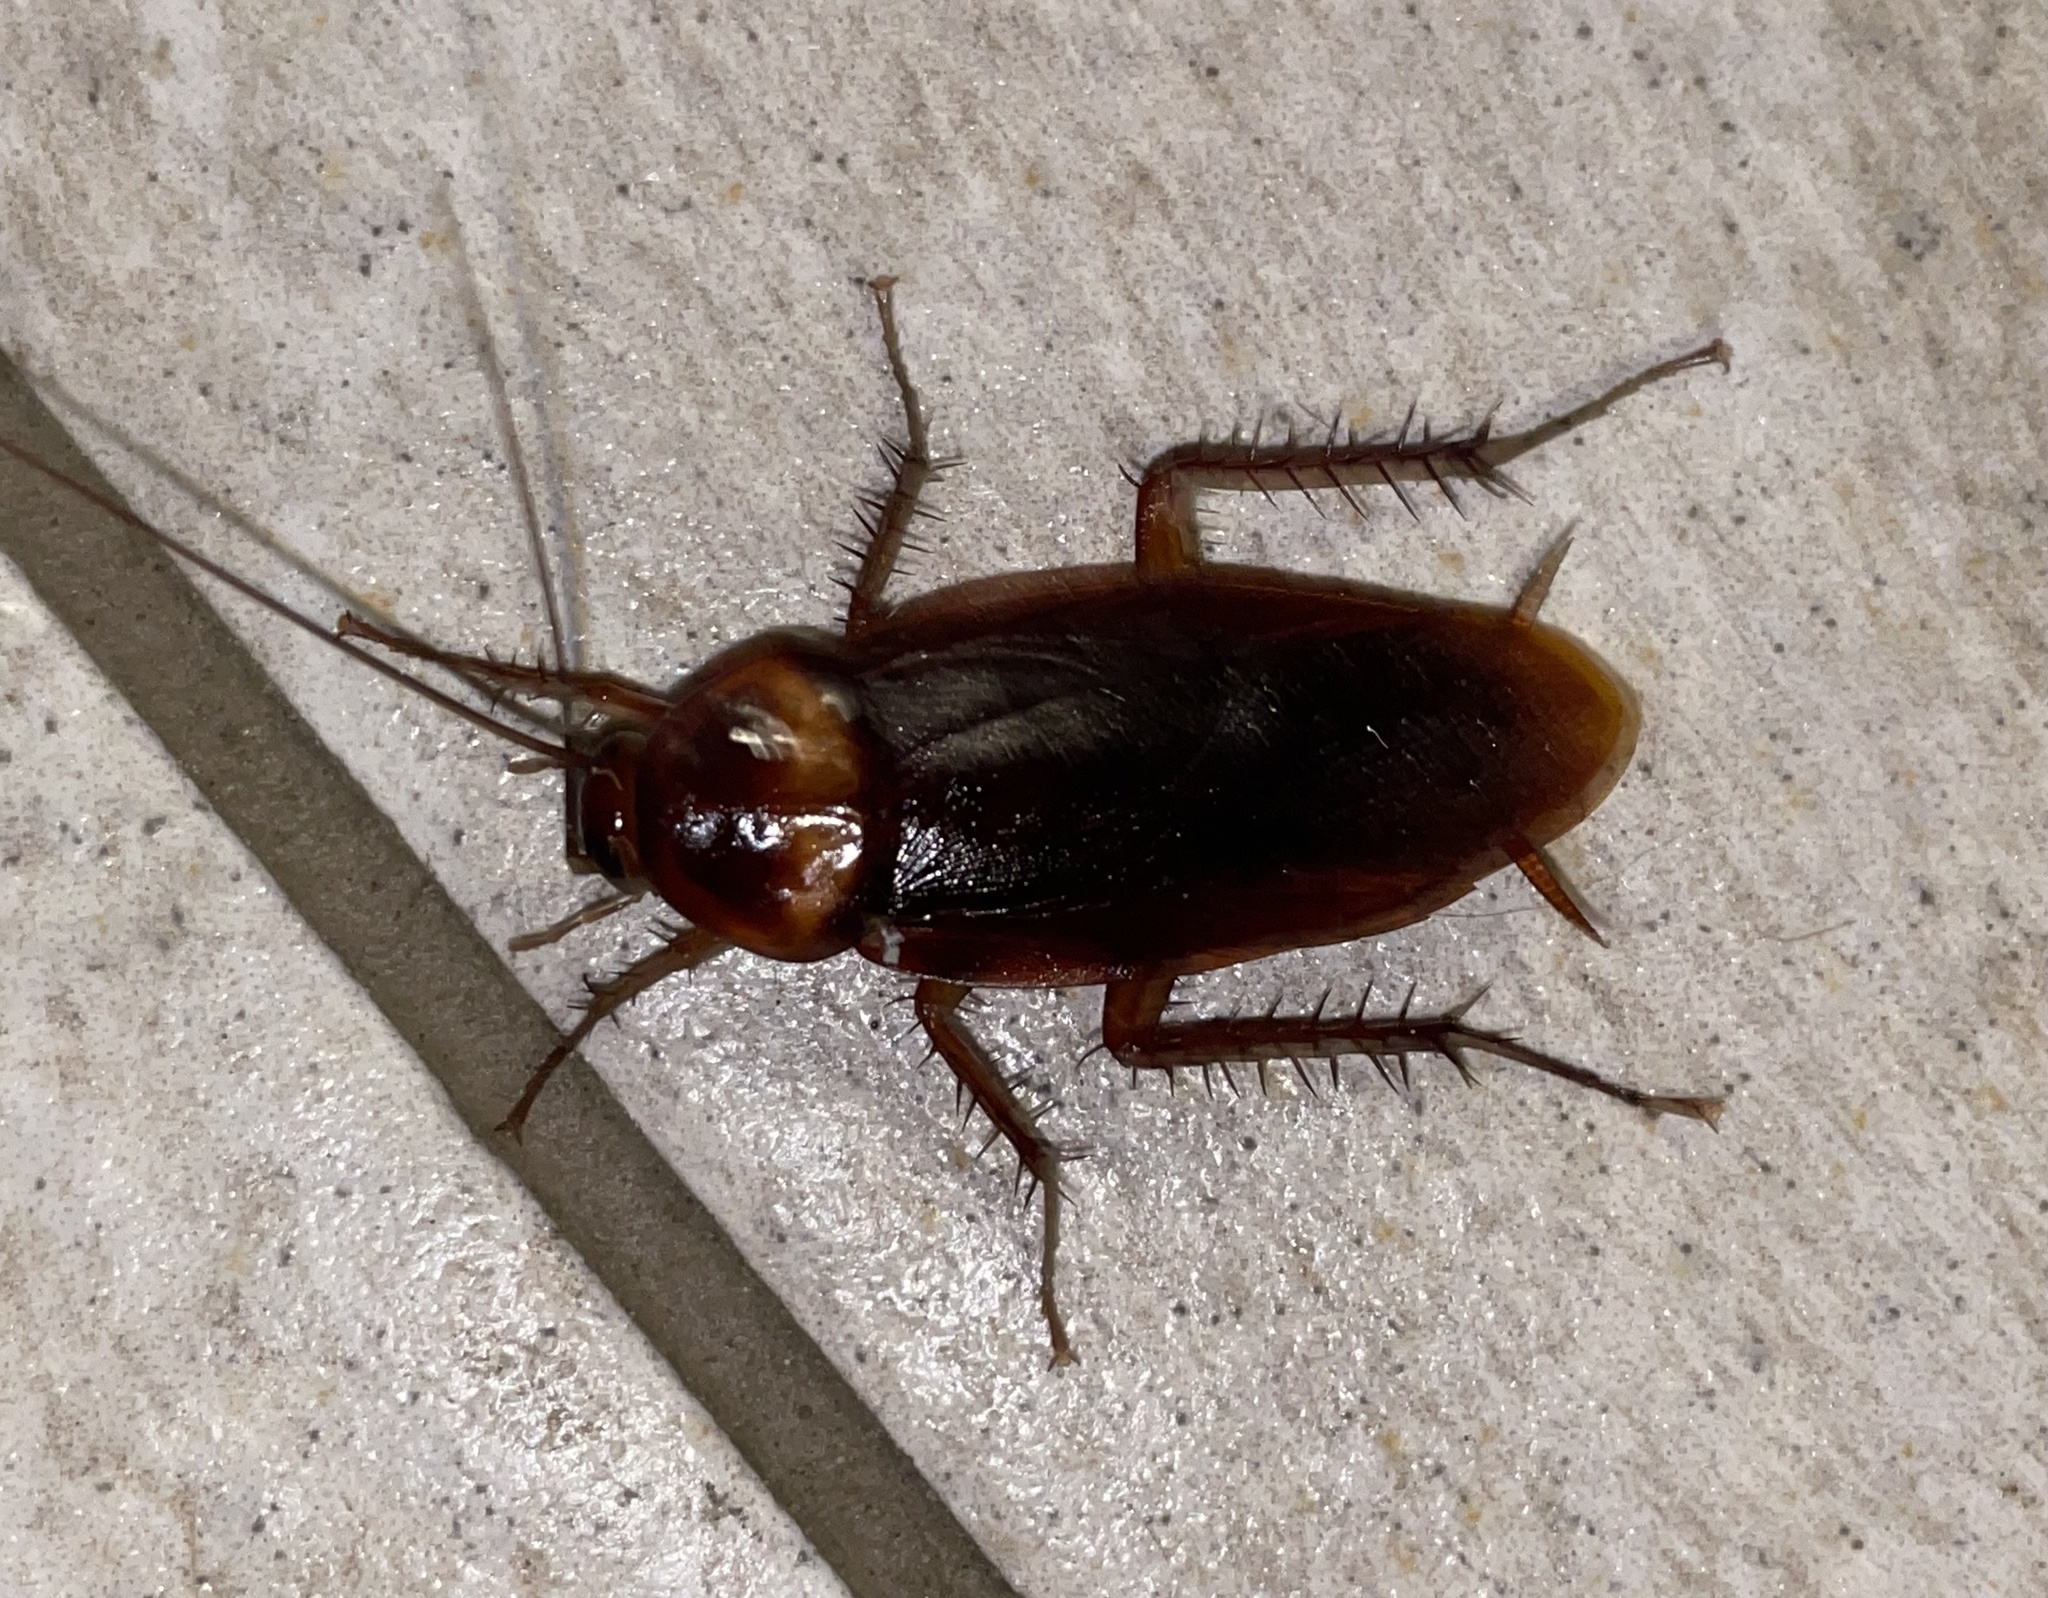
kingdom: Animalia
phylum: Arthropoda
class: Insecta
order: Blattodea
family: Blattidae
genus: Periplaneta
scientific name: Periplaneta americana
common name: American cockroach
